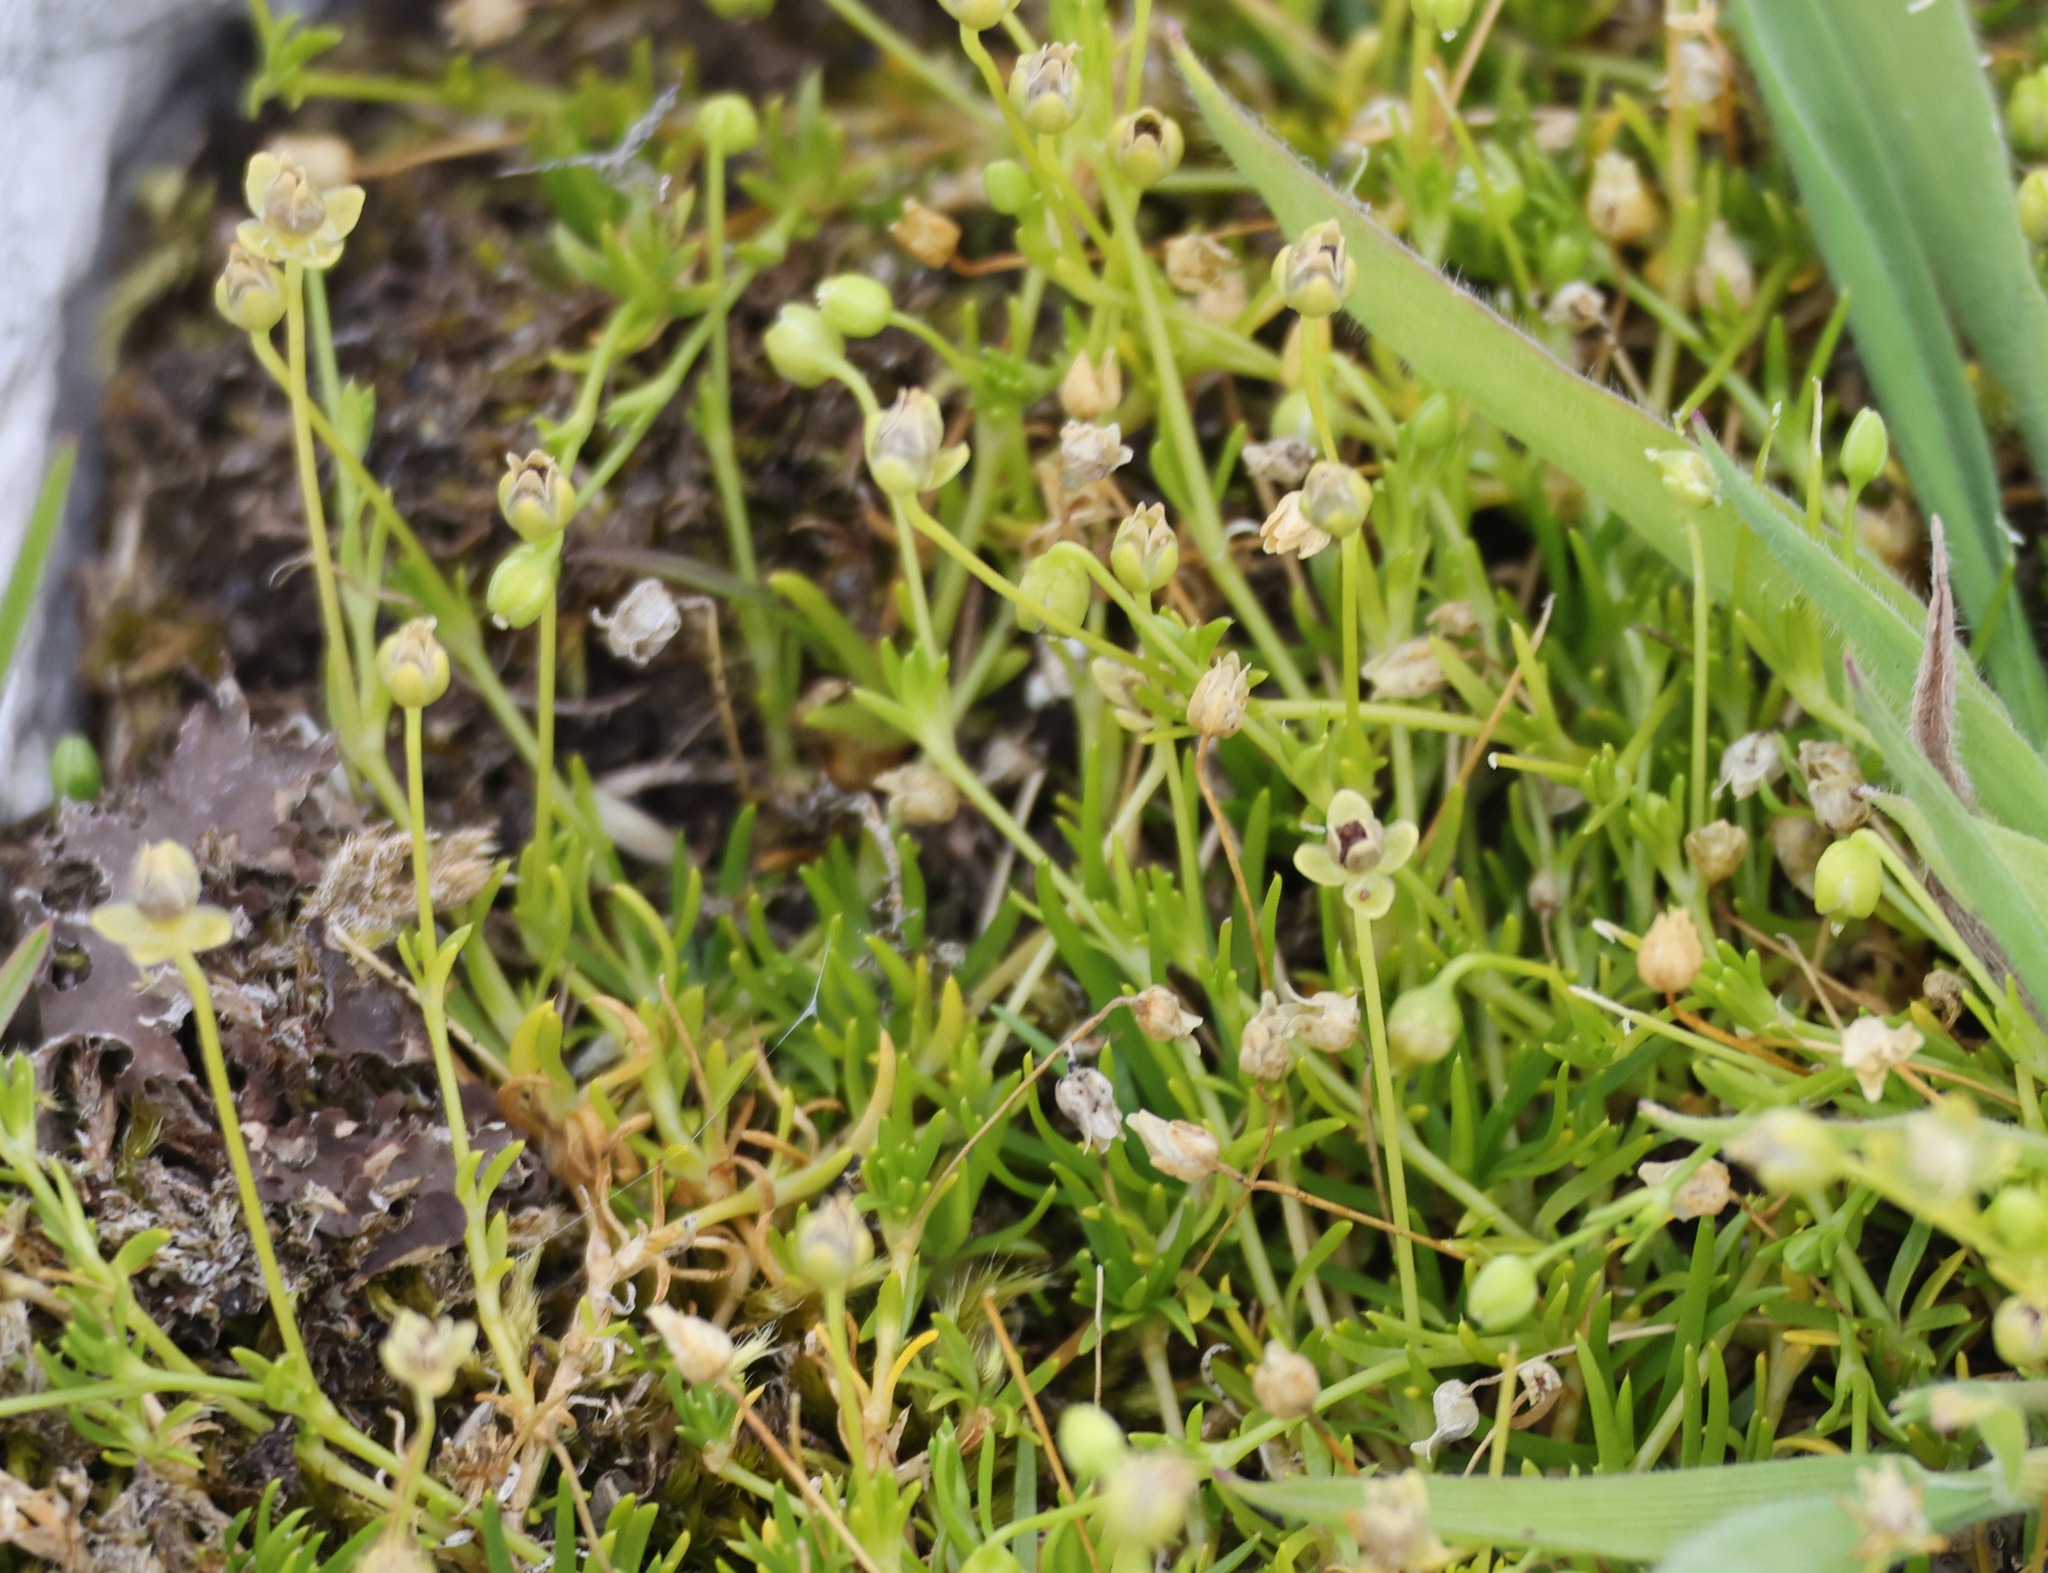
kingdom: Plantae
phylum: Tracheophyta
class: Magnoliopsida
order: Caryophyllales
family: Caryophyllaceae
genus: Sagina
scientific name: Sagina procumbens
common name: Procumbent pearlwort
